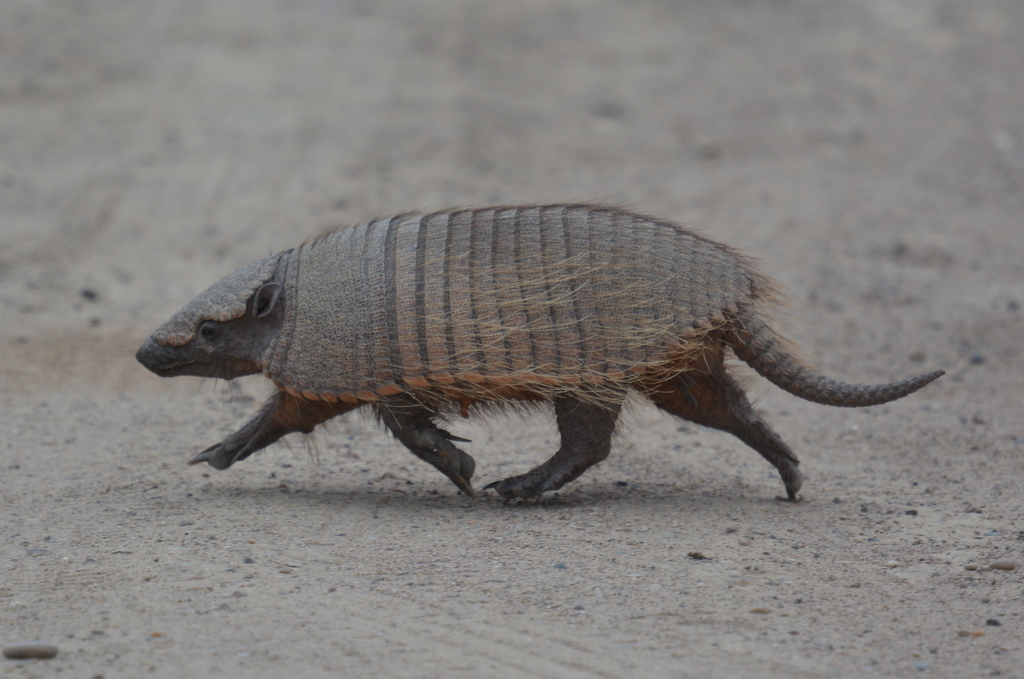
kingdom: Animalia
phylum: Chordata
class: Mammalia
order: Cingulata
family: Dasypodidae
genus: Chaetophractus
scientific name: Chaetophractus villosus
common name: Big hairy armadillo
